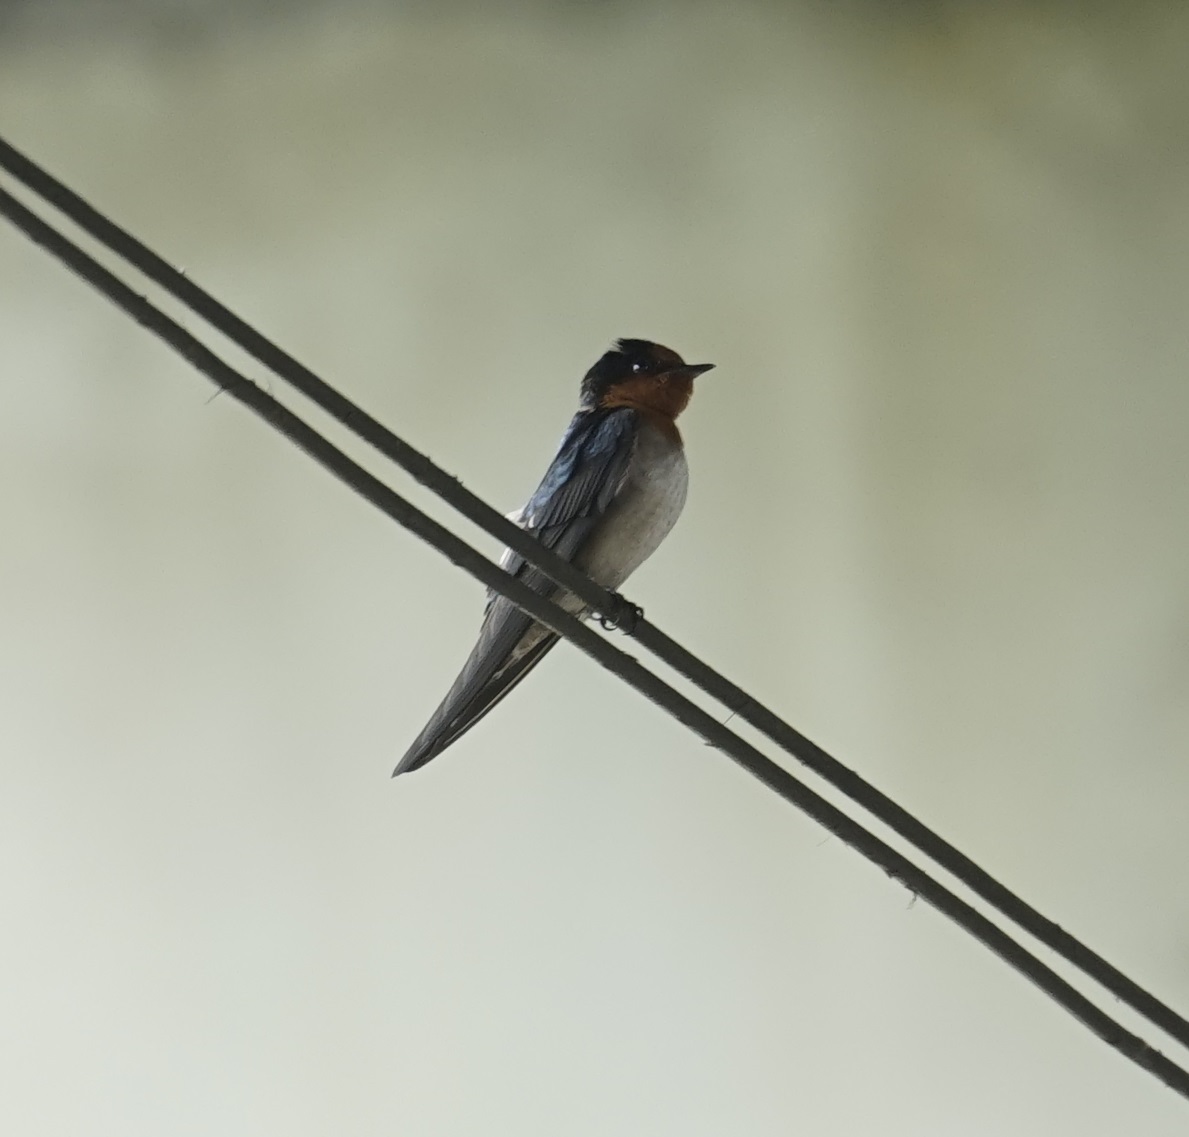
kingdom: Animalia
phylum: Chordata
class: Aves
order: Passeriformes
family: Hirundinidae
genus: Hirundo
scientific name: Hirundo tahitica
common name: Pacific swallow
